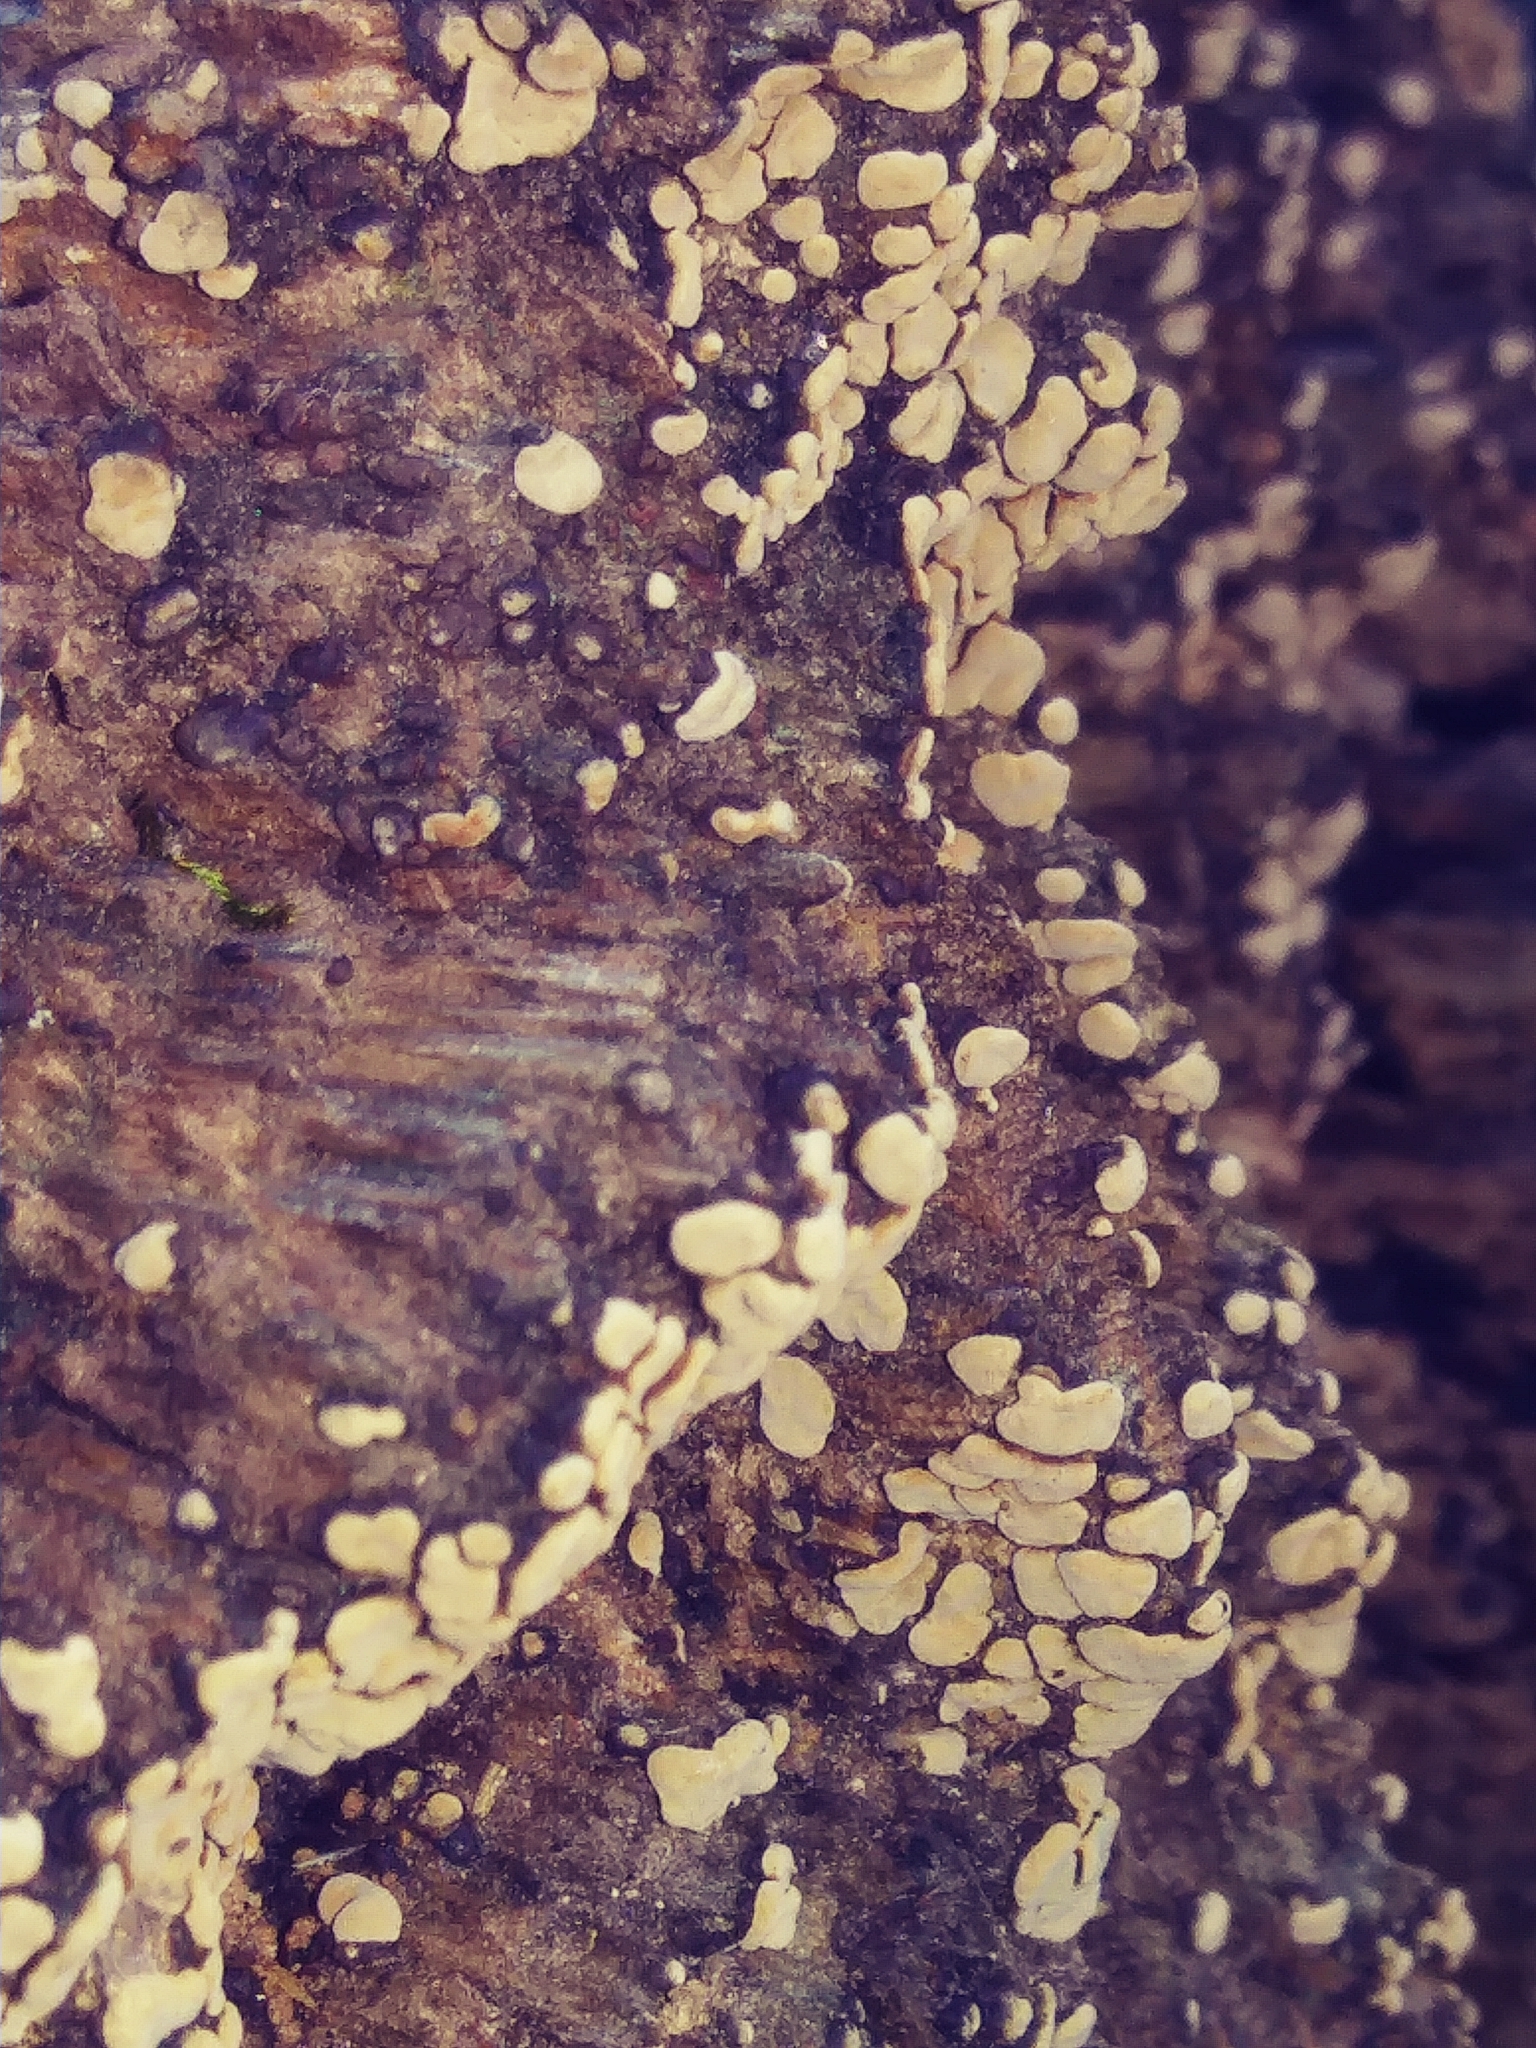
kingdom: Fungi
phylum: Basidiomycota
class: Agaricomycetes
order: Russulales
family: Stereaceae
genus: Xylobolus
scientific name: Xylobolus frustulatus
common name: Ceramic parchment
